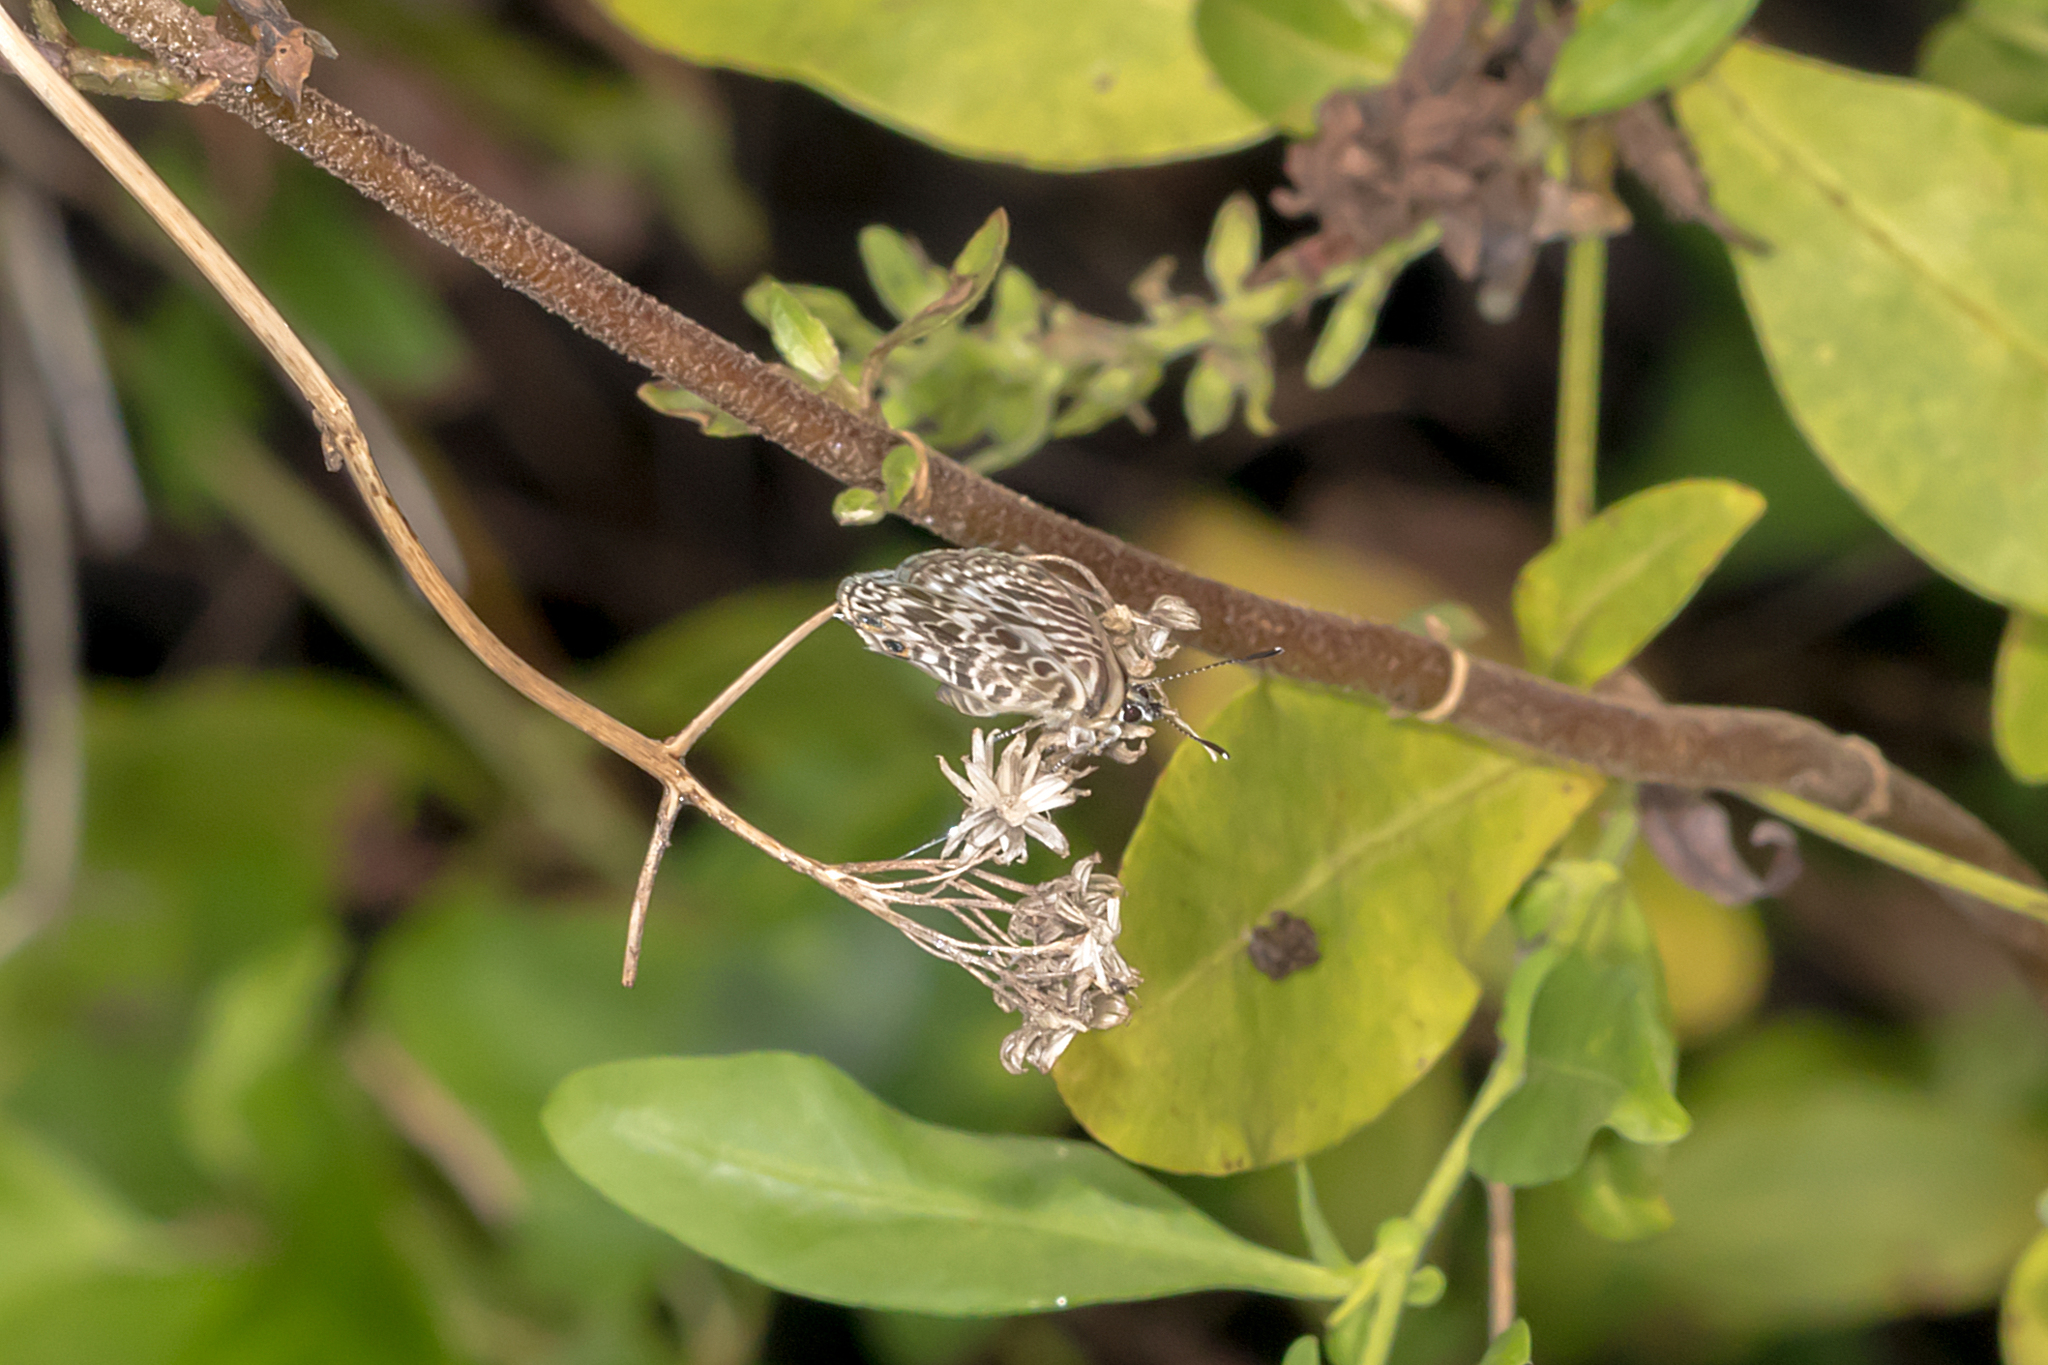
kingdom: Animalia
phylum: Arthropoda
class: Insecta
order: Lepidoptera
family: Lycaenidae
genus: Leptotes
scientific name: Leptotes plinius
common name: Zebra blue
